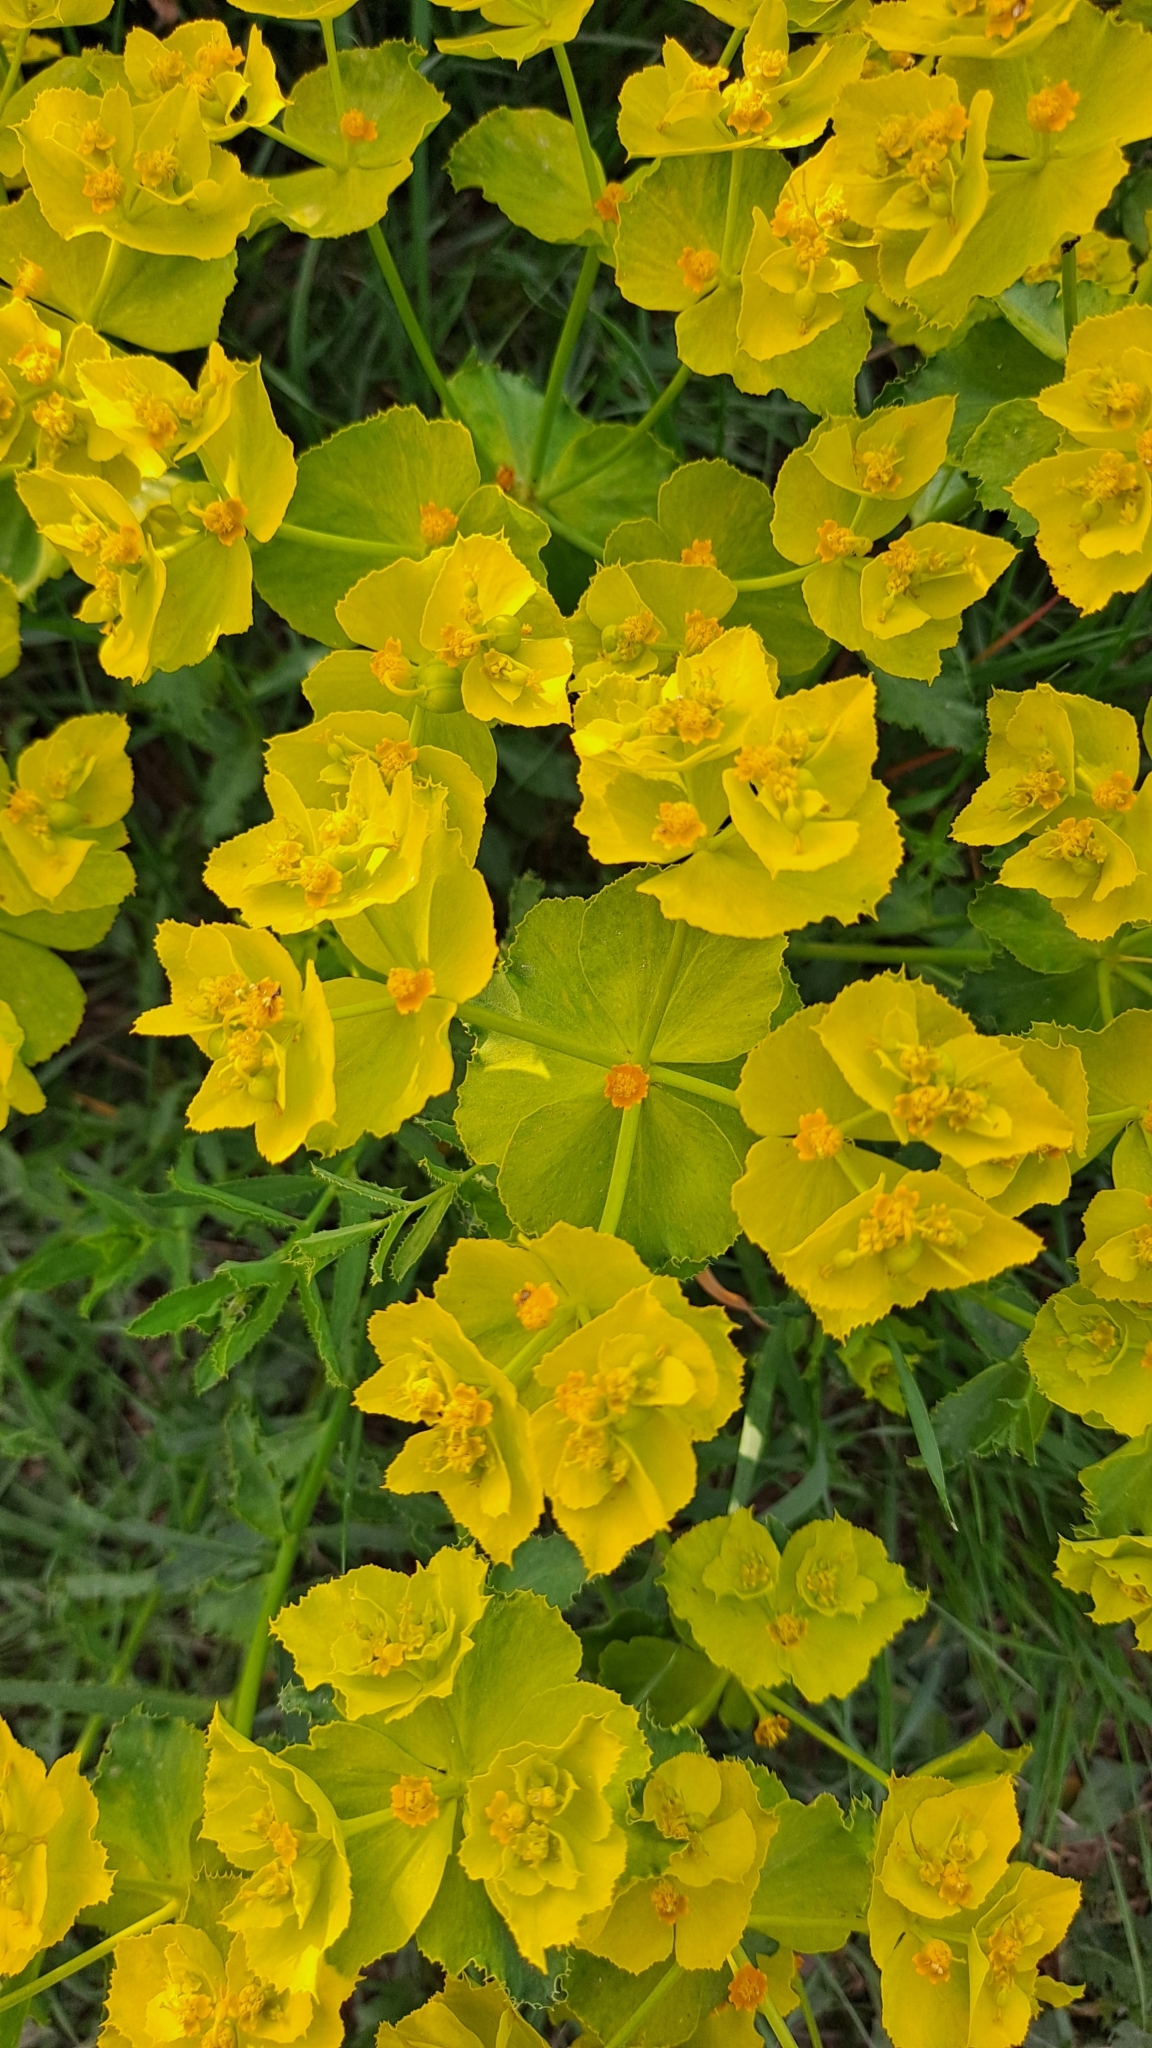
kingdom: Plantae
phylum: Tracheophyta
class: Magnoliopsida
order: Malpighiales
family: Euphorbiaceae
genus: Euphorbia
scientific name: Euphorbia serrata
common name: Serrate spurge
